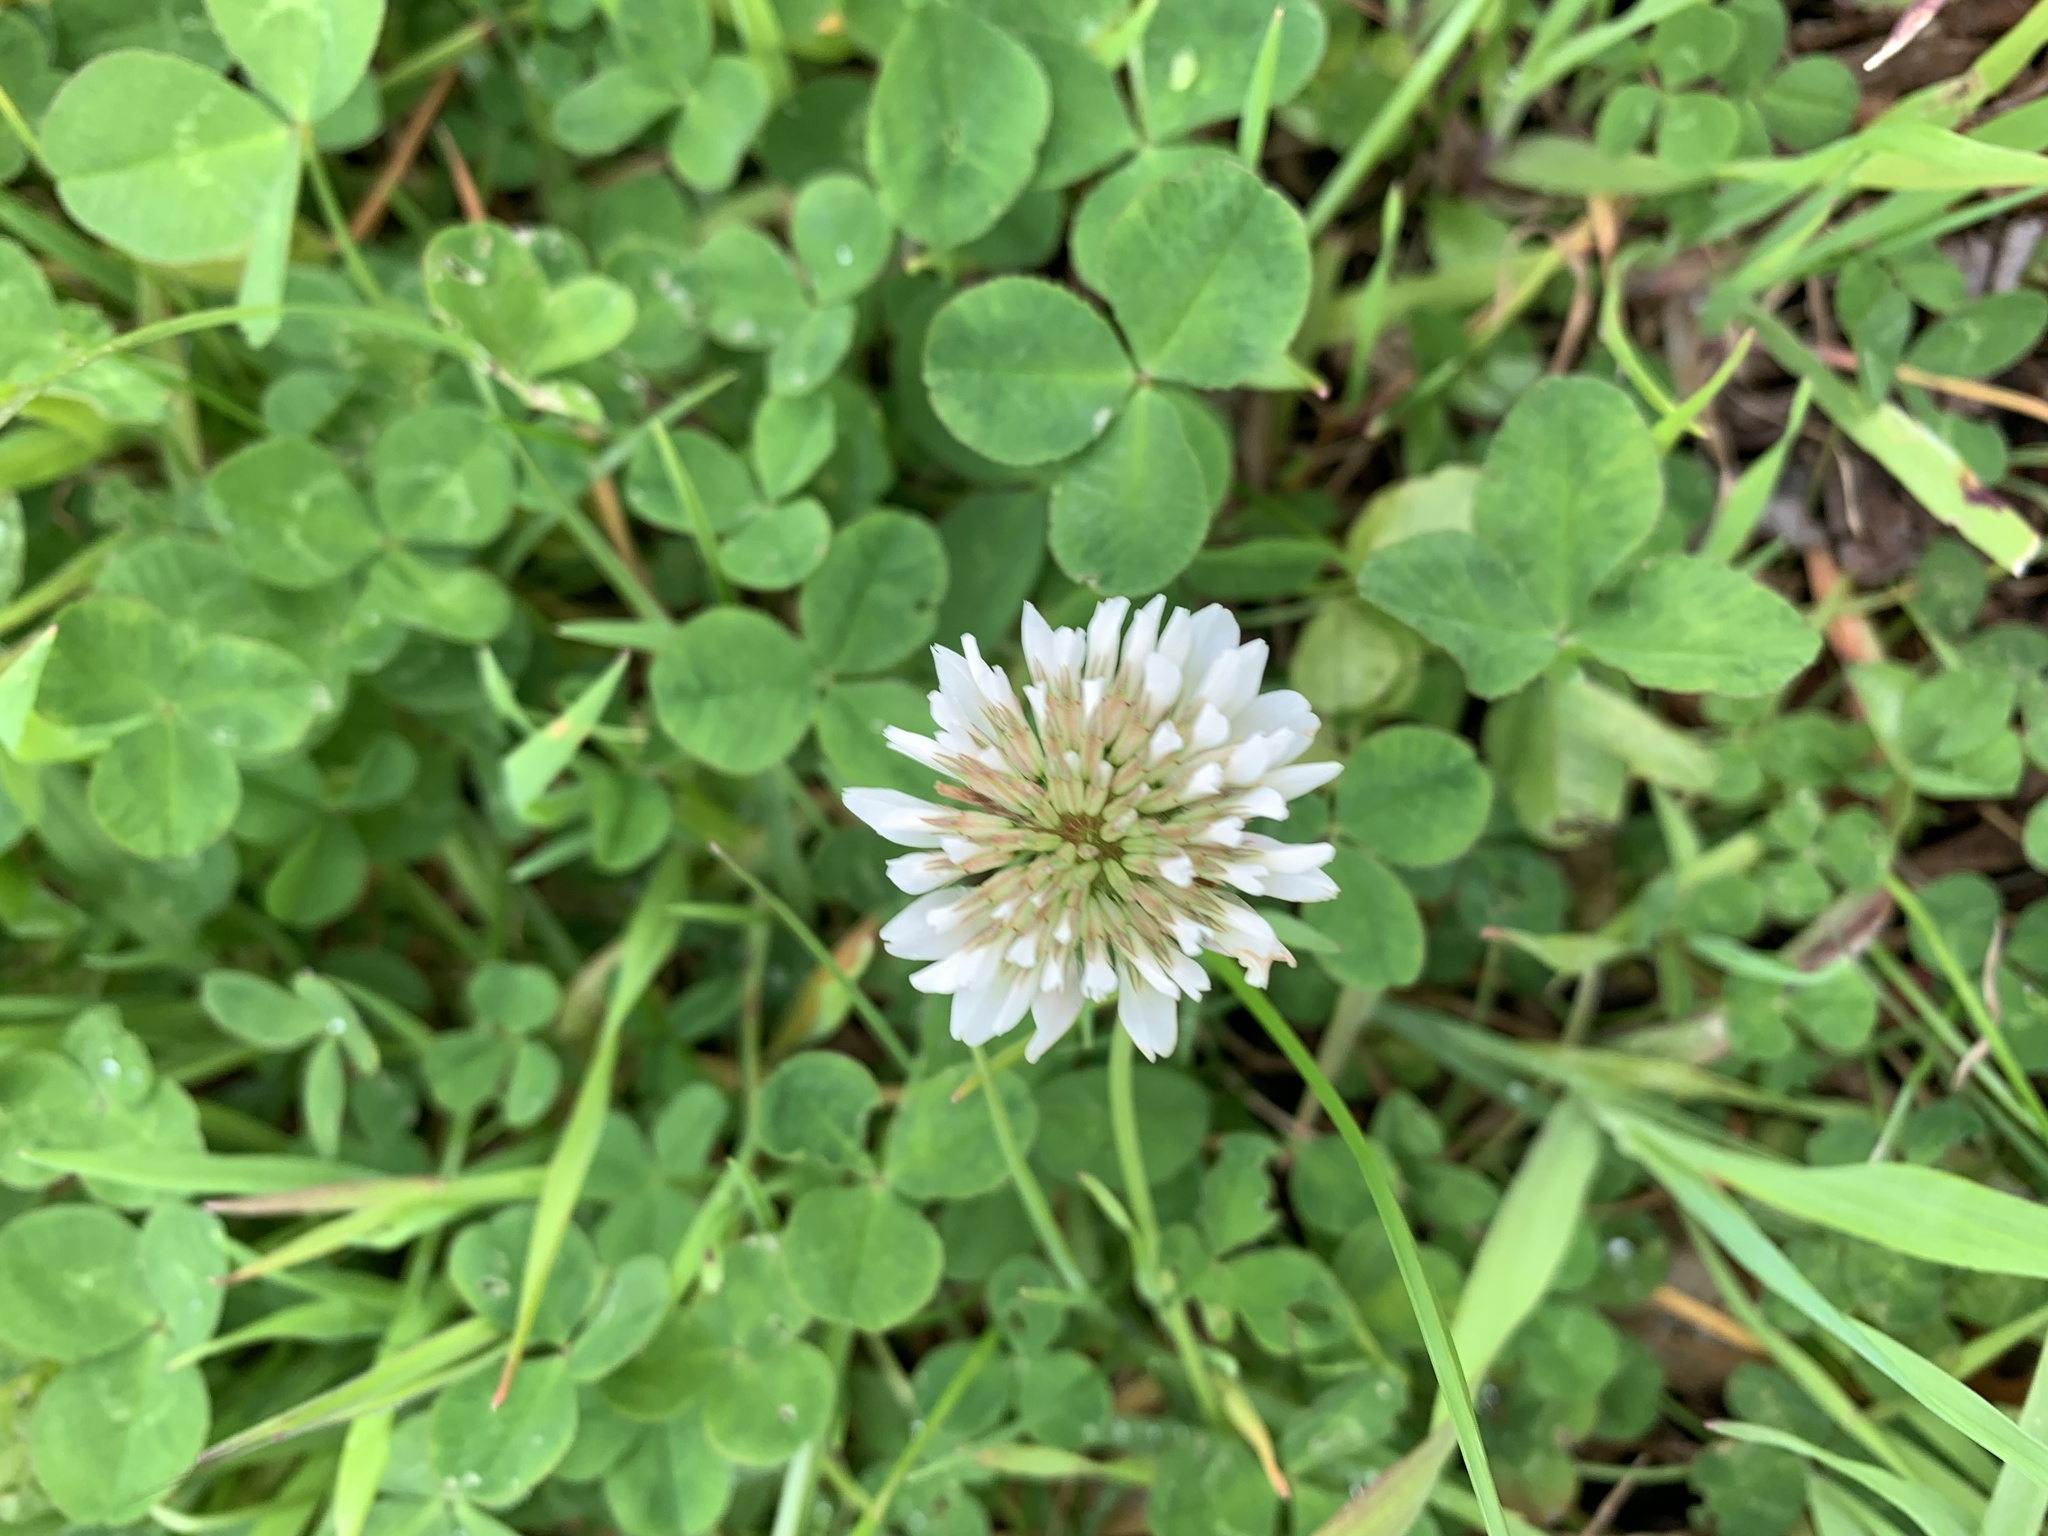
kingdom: Plantae
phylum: Tracheophyta
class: Magnoliopsida
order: Fabales
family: Fabaceae
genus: Trifolium
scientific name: Trifolium repens
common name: White clover
